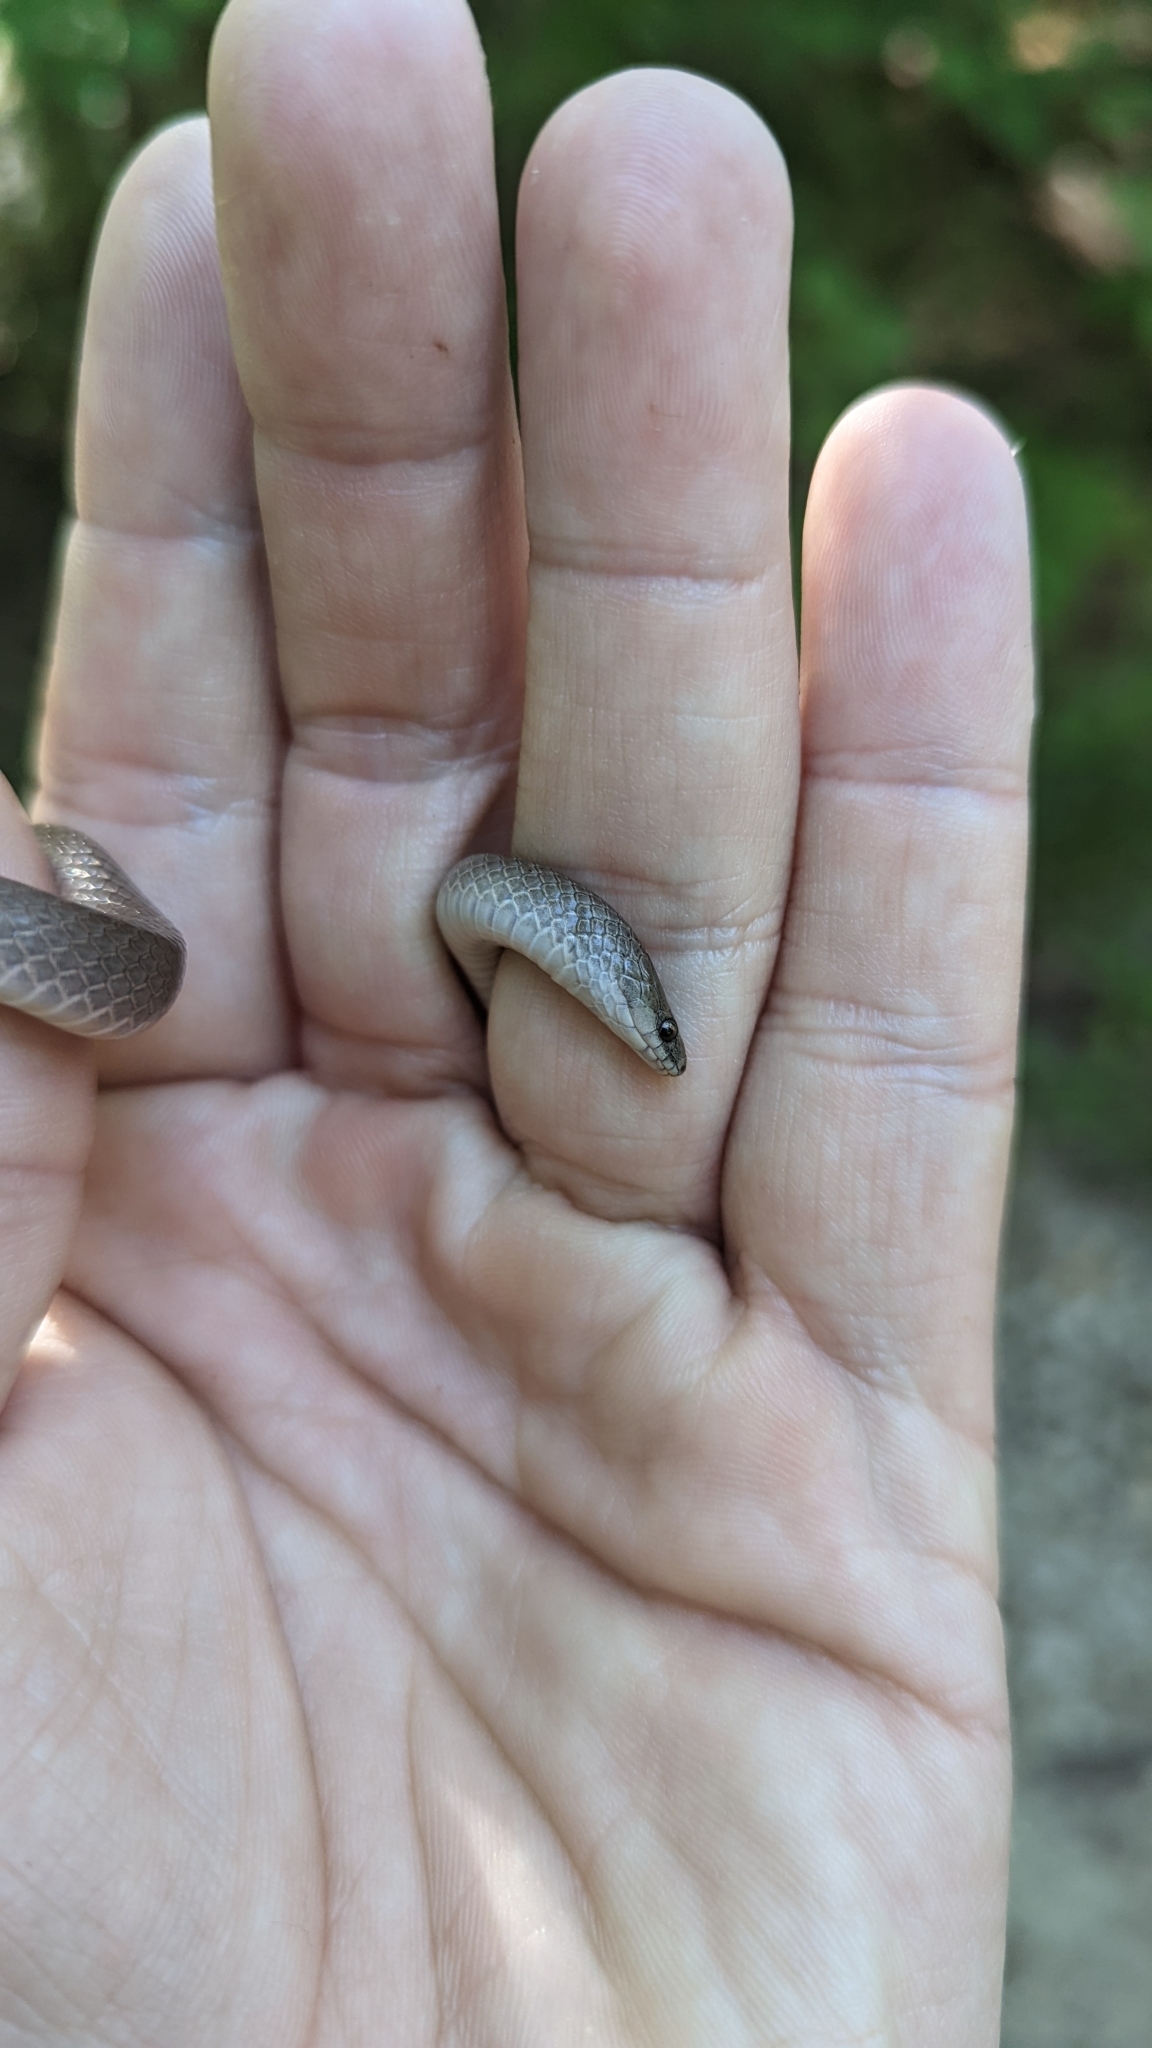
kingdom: Animalia
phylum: Chordata
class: Squamata
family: Colubridae
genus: Virginia
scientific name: Virginia valeriae
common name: Smooth earth snake
